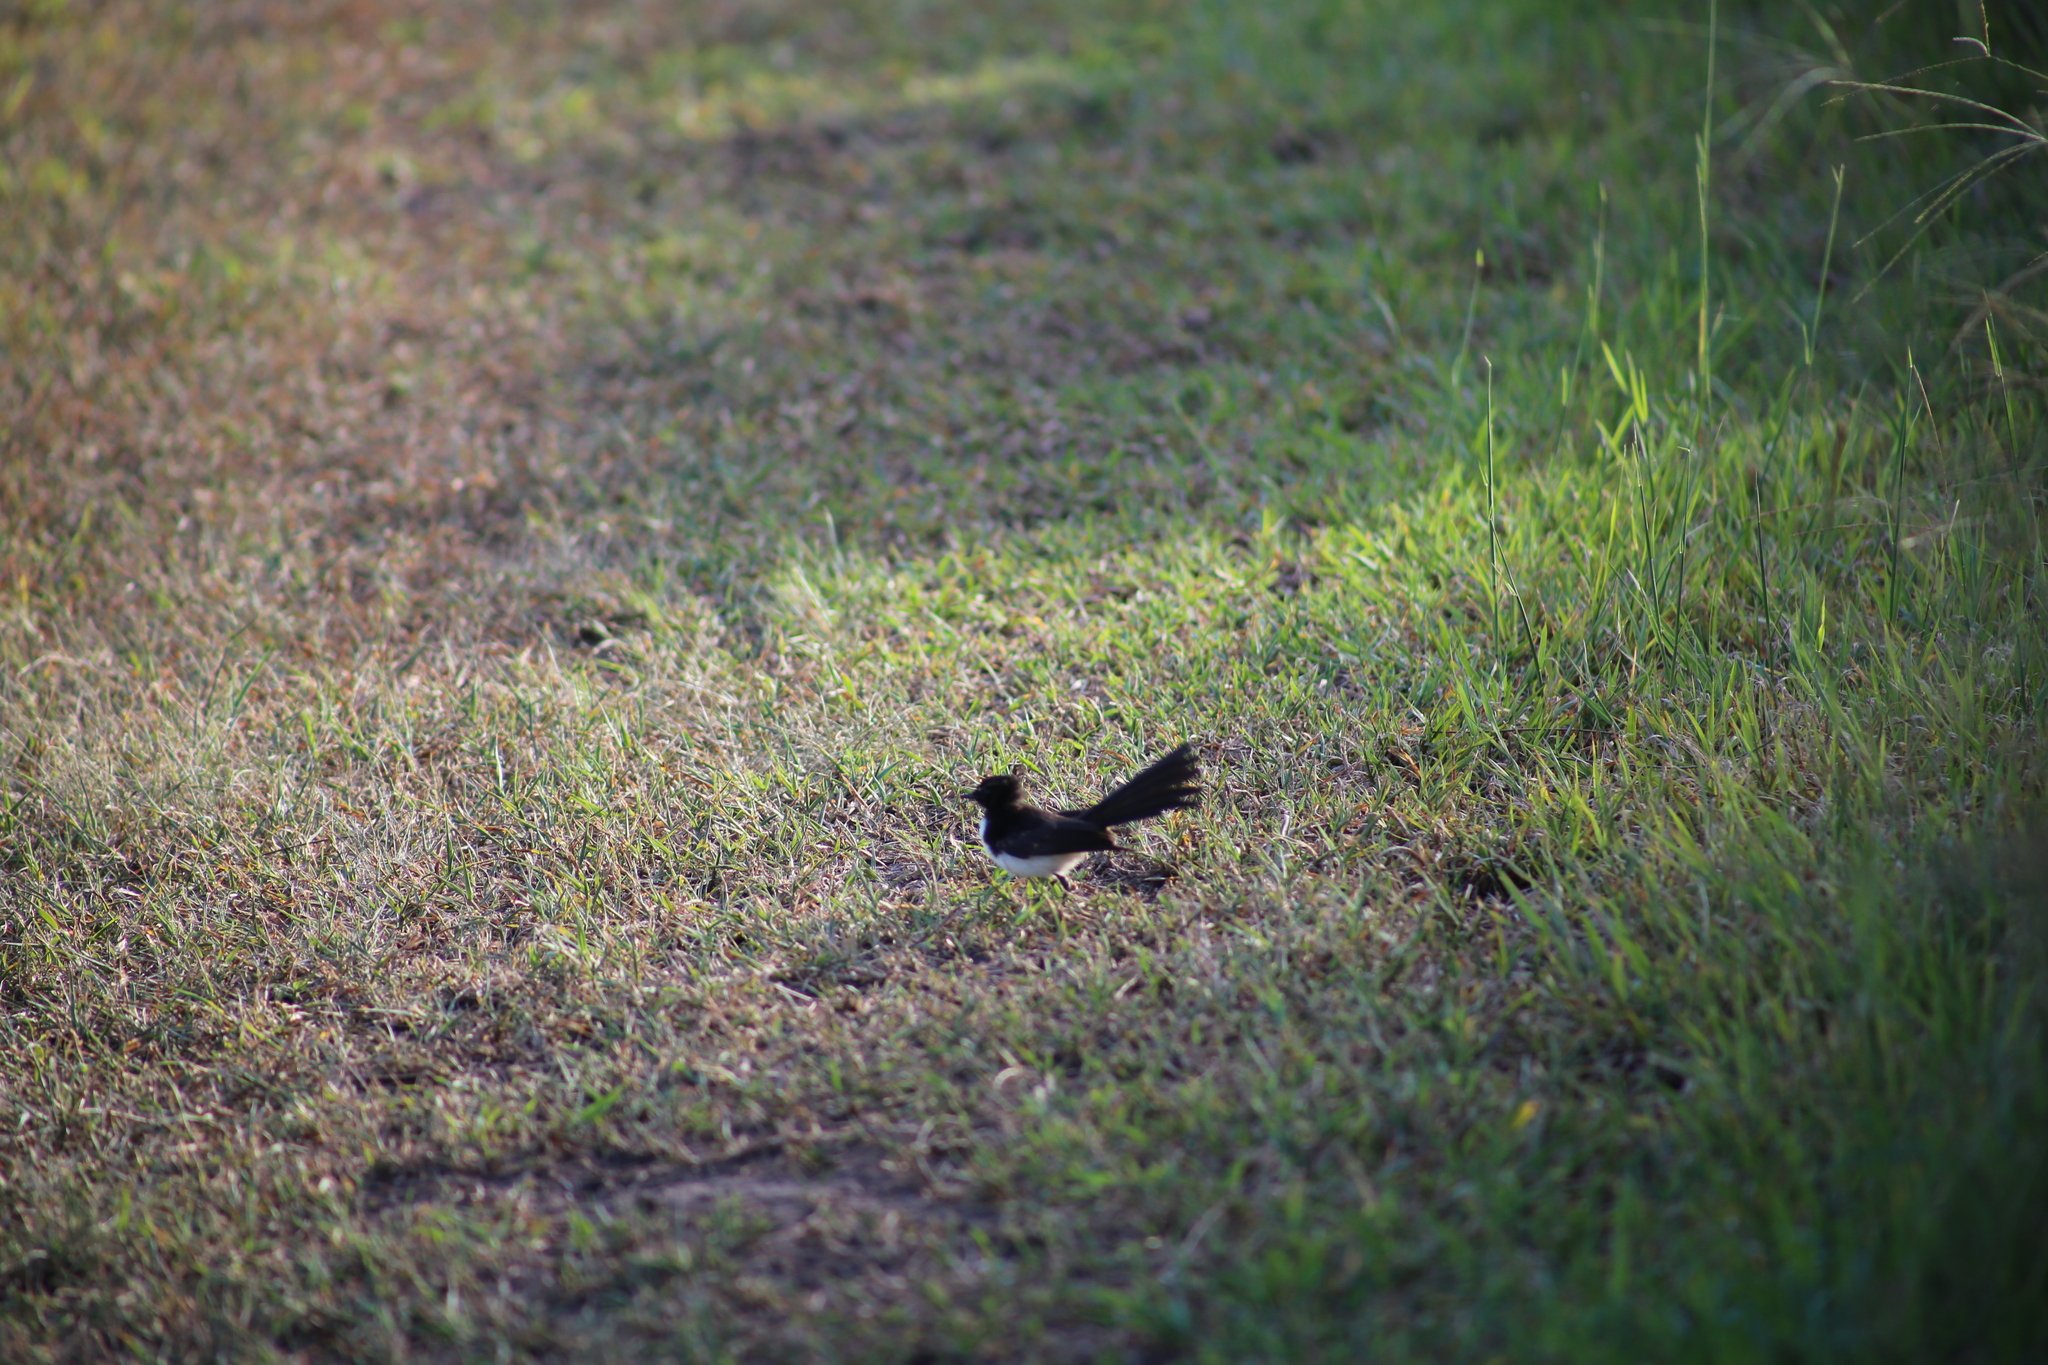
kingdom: Animalia
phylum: Chordata
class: Aves
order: Passeriformes
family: Rhipiduridae
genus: Rhipidura
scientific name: Rhipidura leucophrys
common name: Willie wagtail
